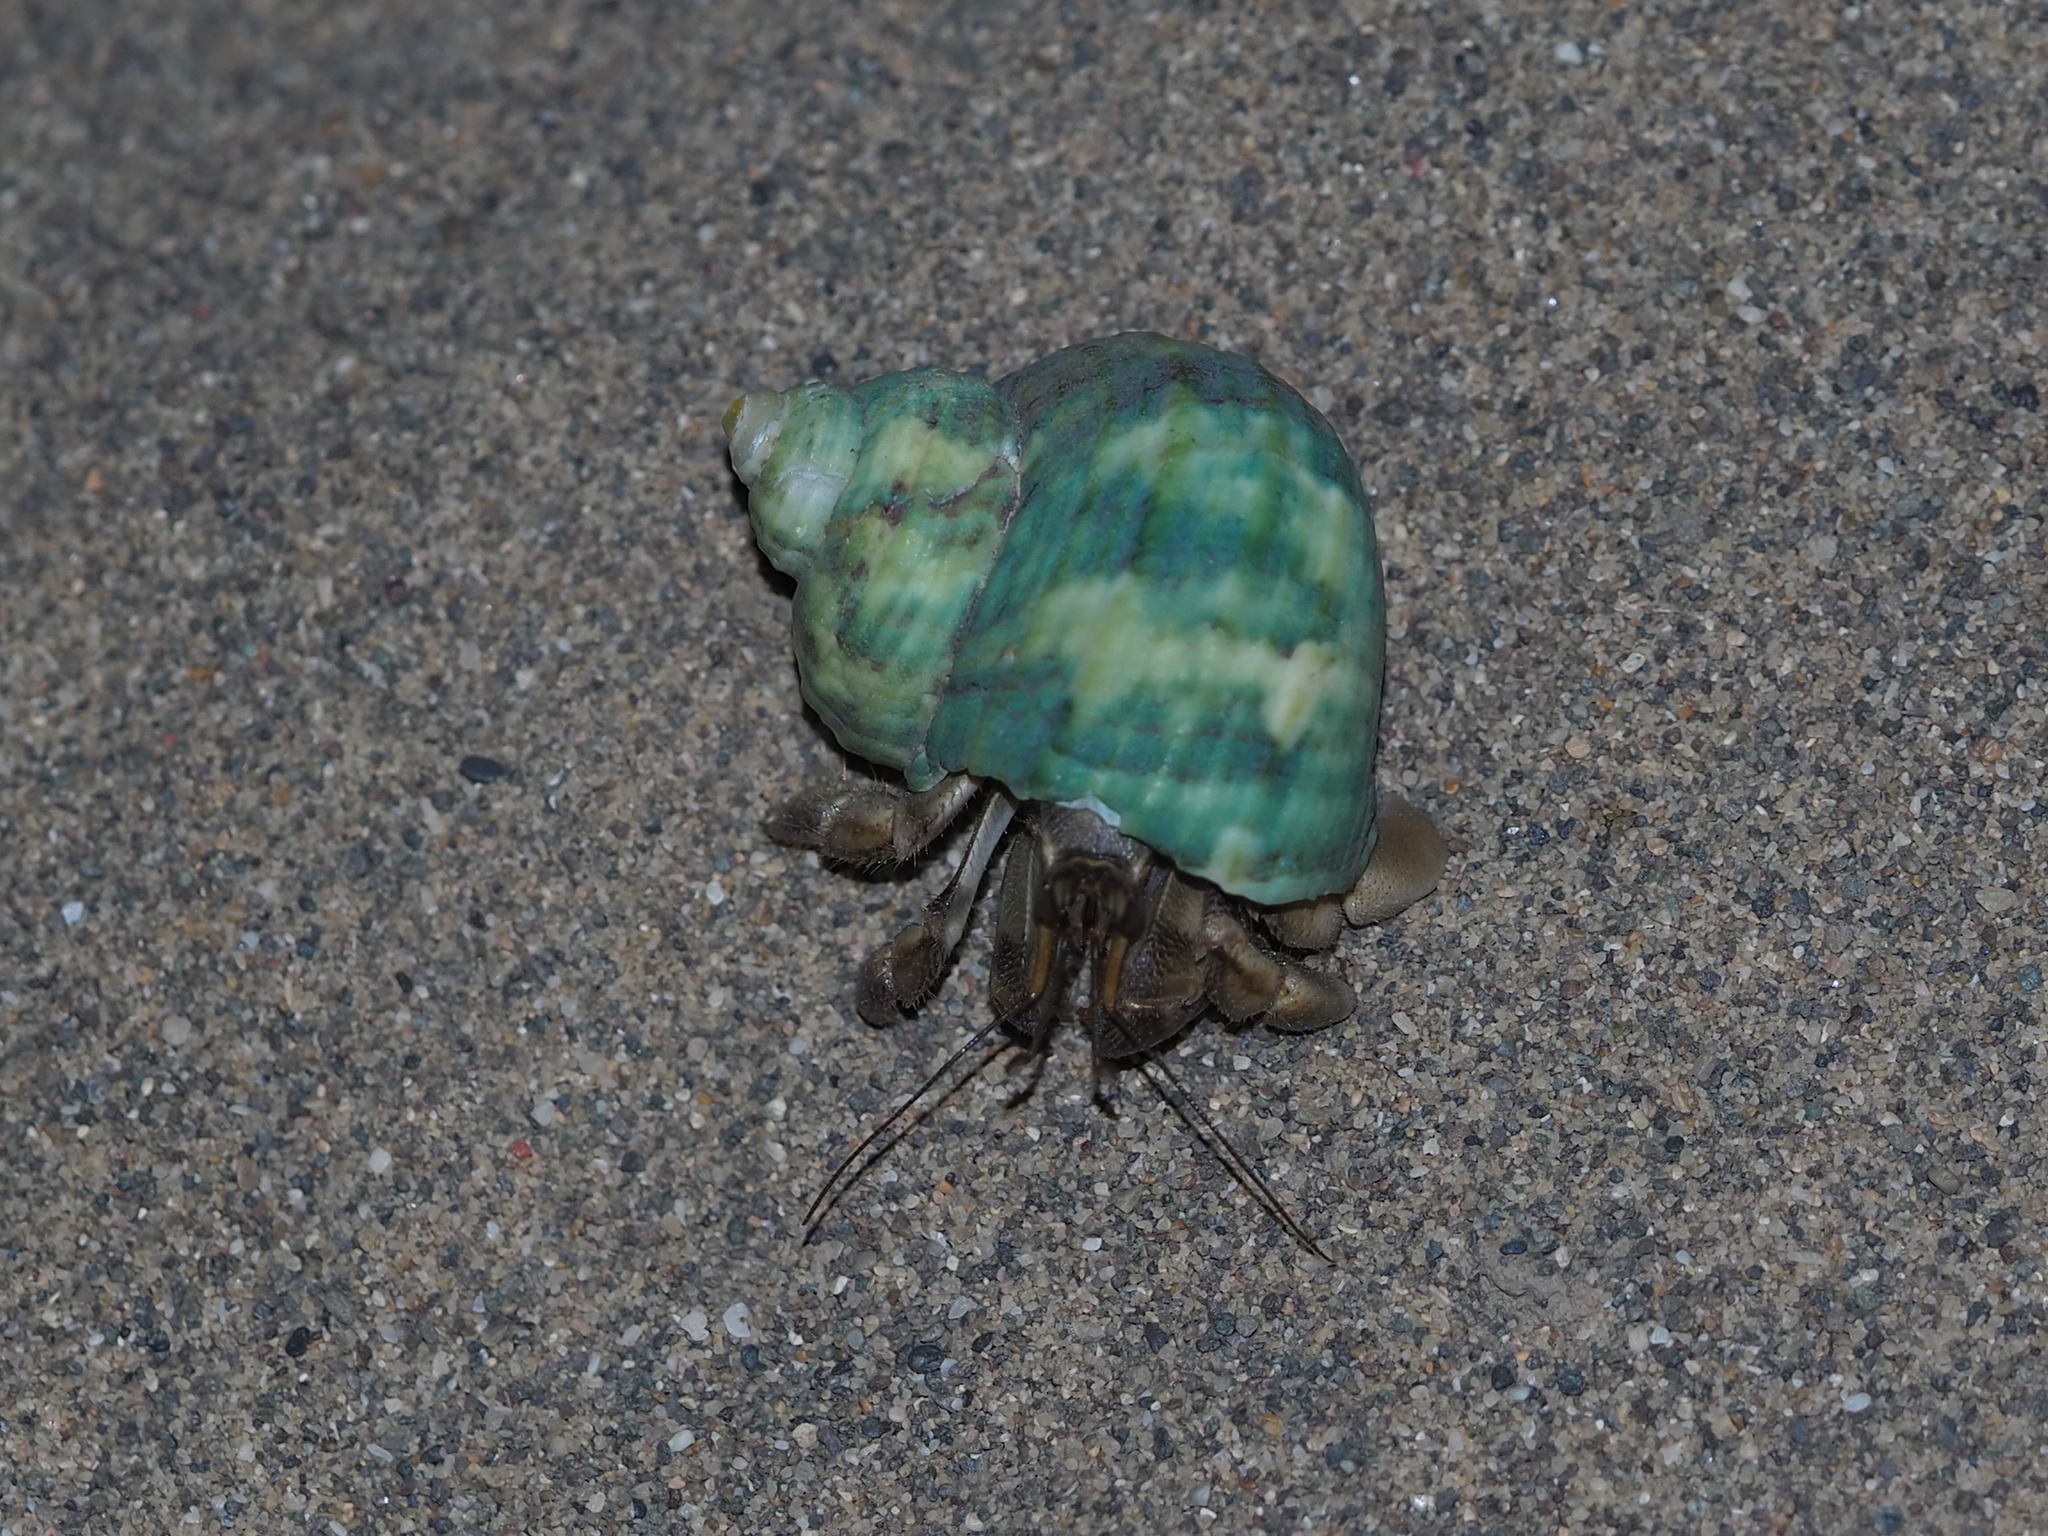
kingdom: Animalia
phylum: Arthropoda
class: Malacostraca
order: Decapoda
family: Coenobitidae
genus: Coenobita
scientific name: Coenobita rugosus
